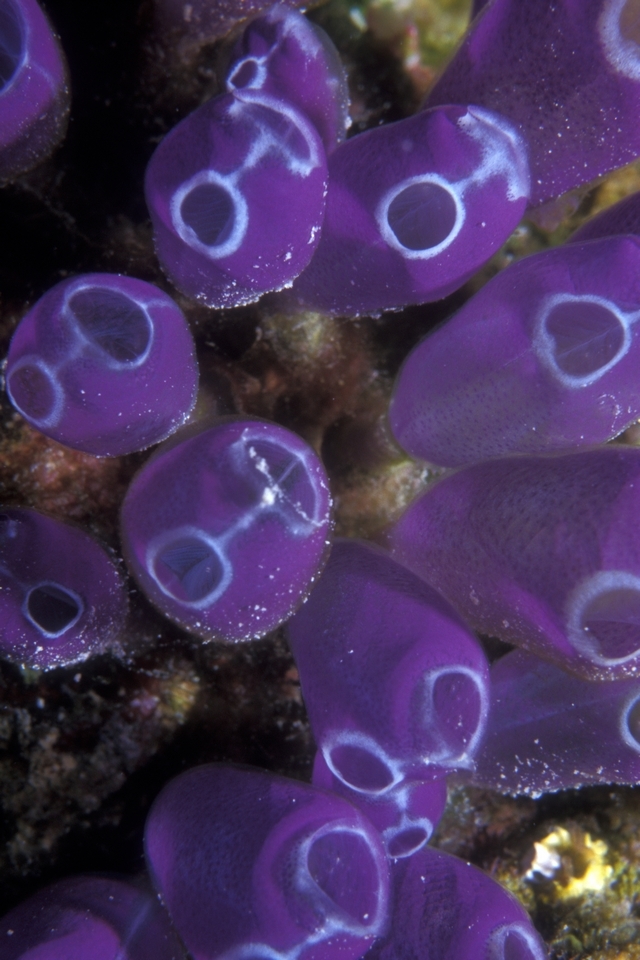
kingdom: Animalia
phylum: Chordata
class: Ascidiacea
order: Aplousobranchia
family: Clavelinidae
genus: Clavelina
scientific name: Clavelina puertosecensis
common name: Blue bell tunicate
